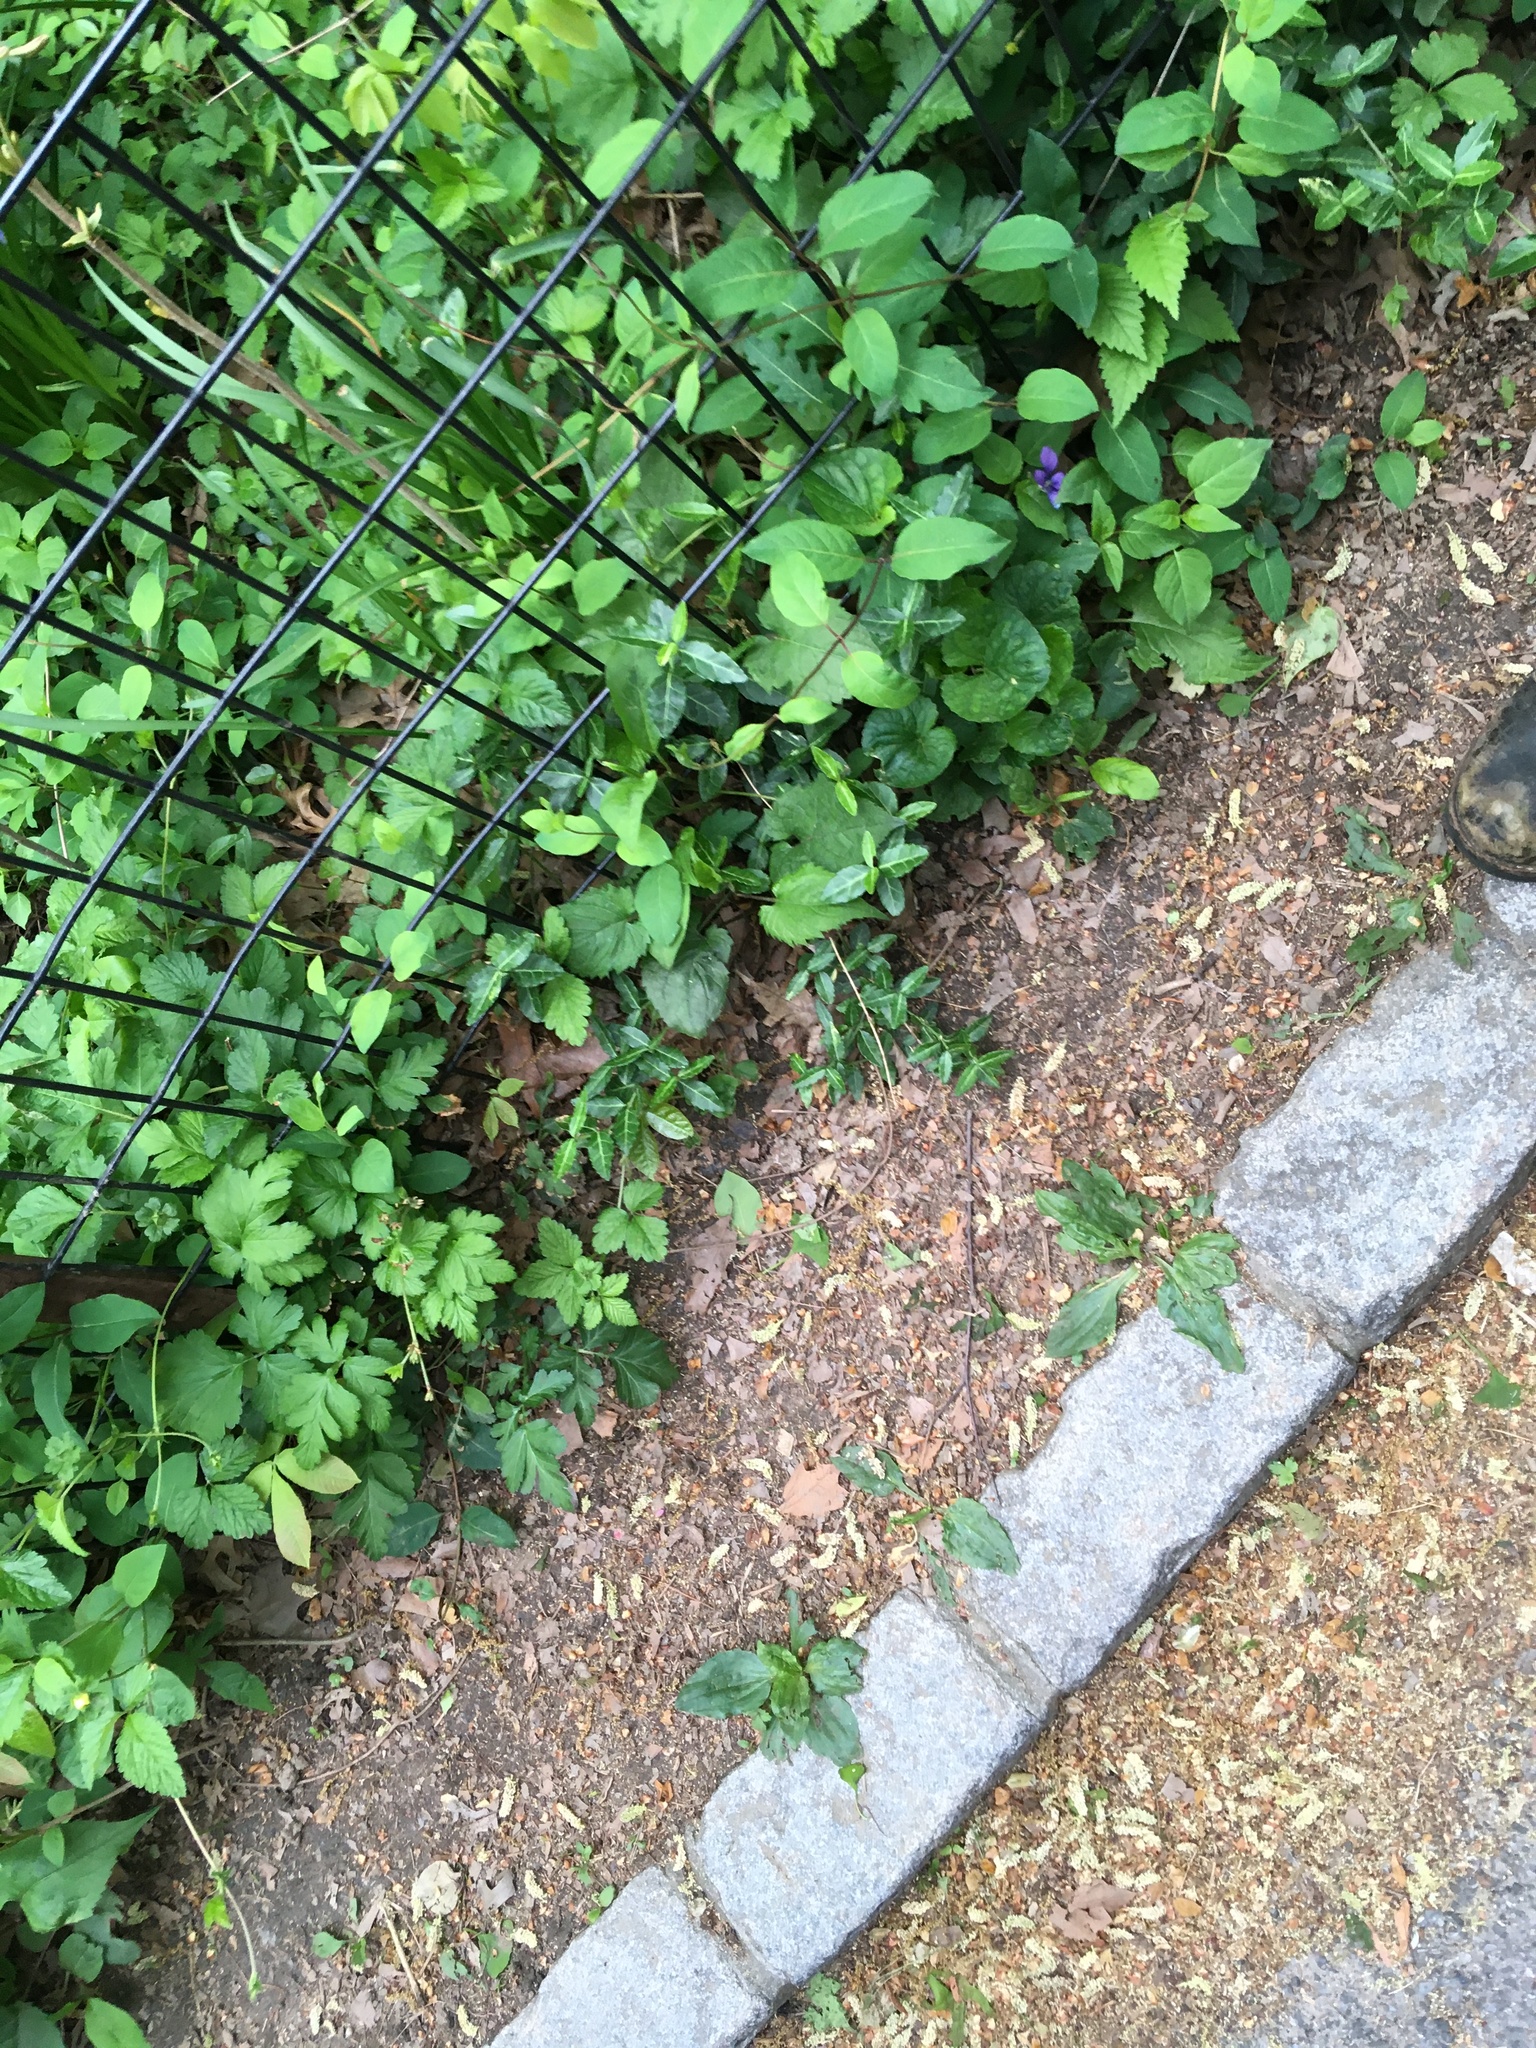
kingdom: Plantae
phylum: Tracheophyta
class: Magnoliopsida
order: Celastrales
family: Celastraceae
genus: Euonymus
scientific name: Euonymus fortunei
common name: Climbing euonymus
